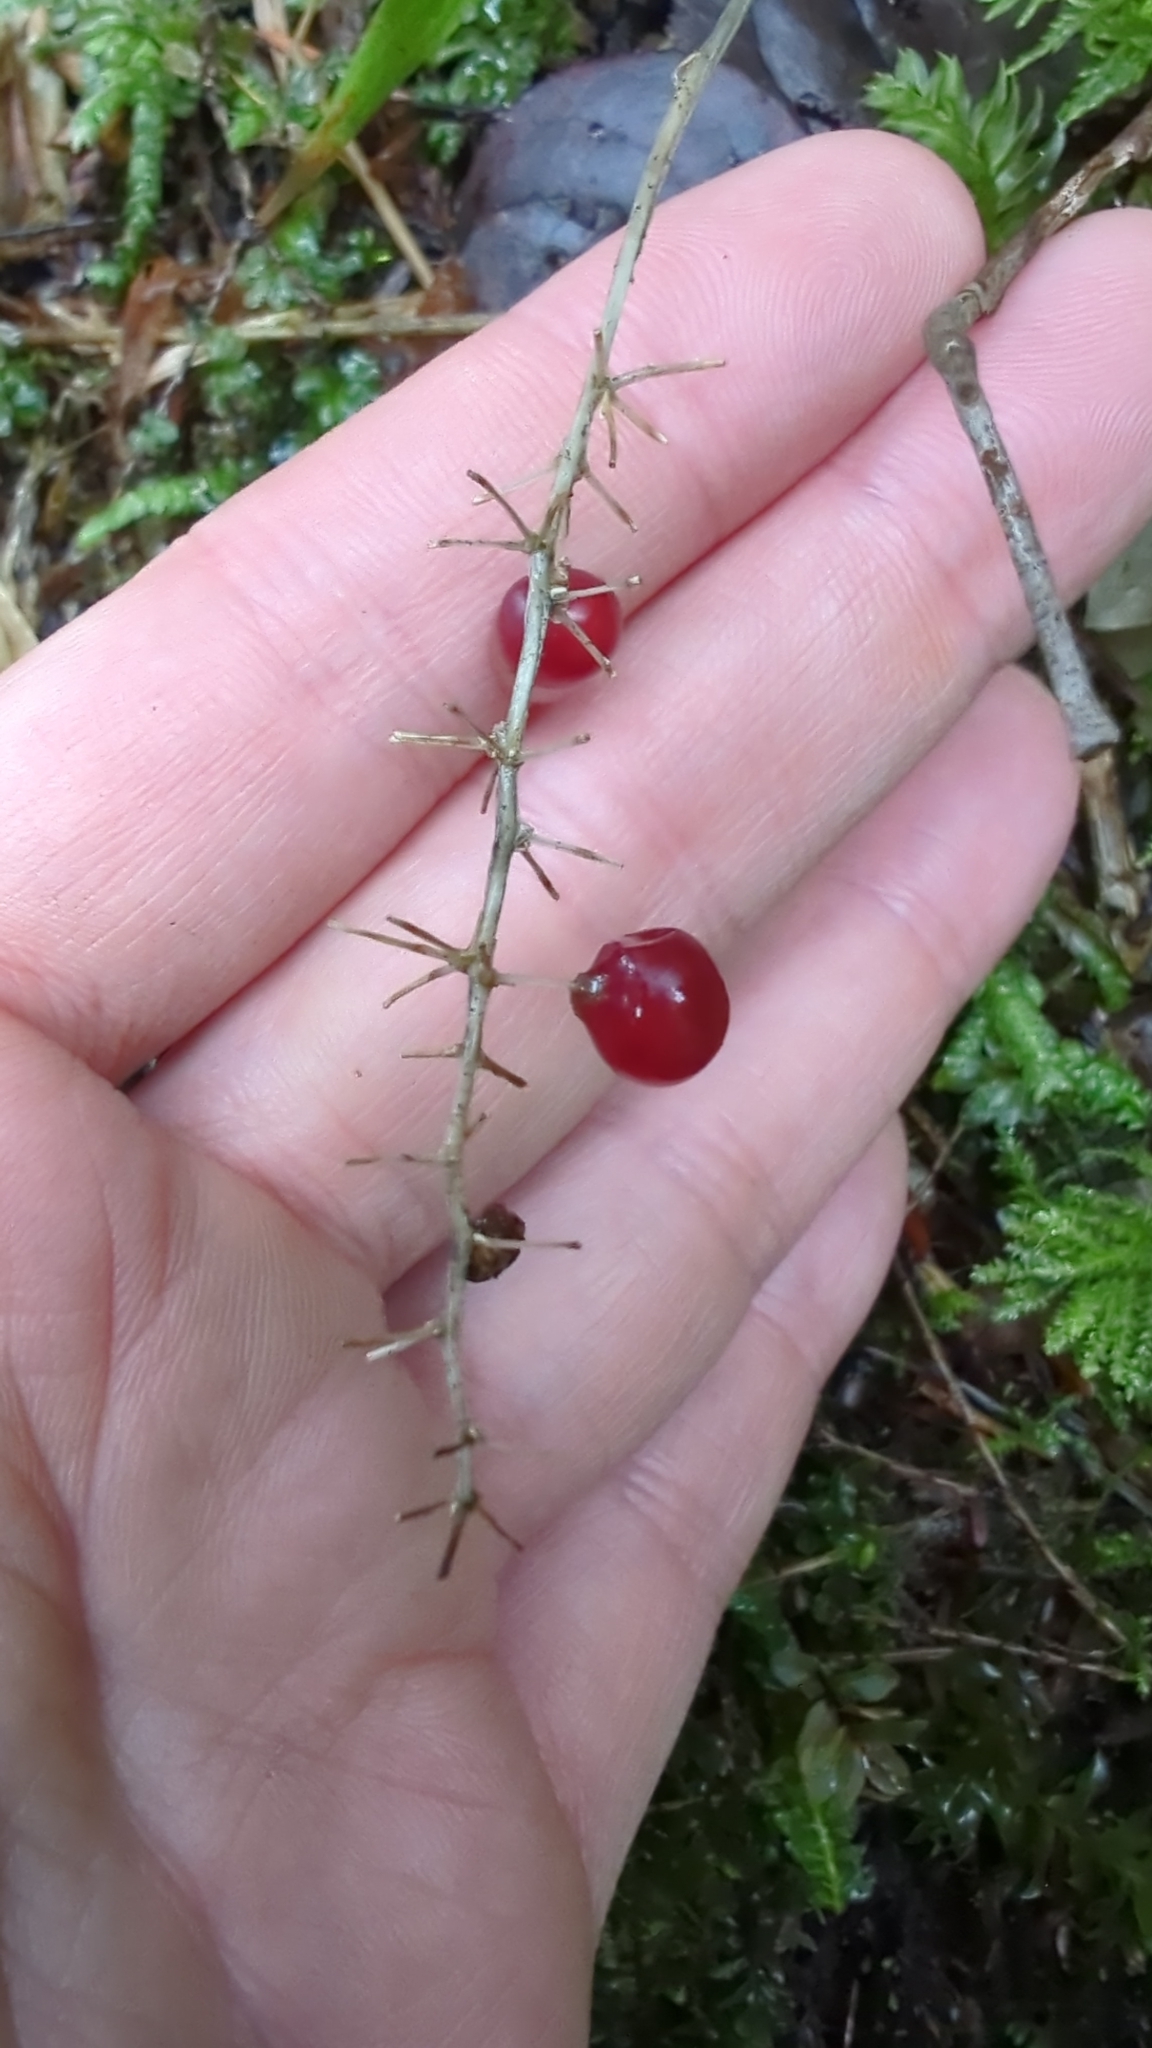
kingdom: Plantae
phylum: Tracheophyta
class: Liliopsida
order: Asparagales
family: Asparagaceae
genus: Maianthemum
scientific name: Maianthemum dilatatum
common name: False lily-of-the-valley
